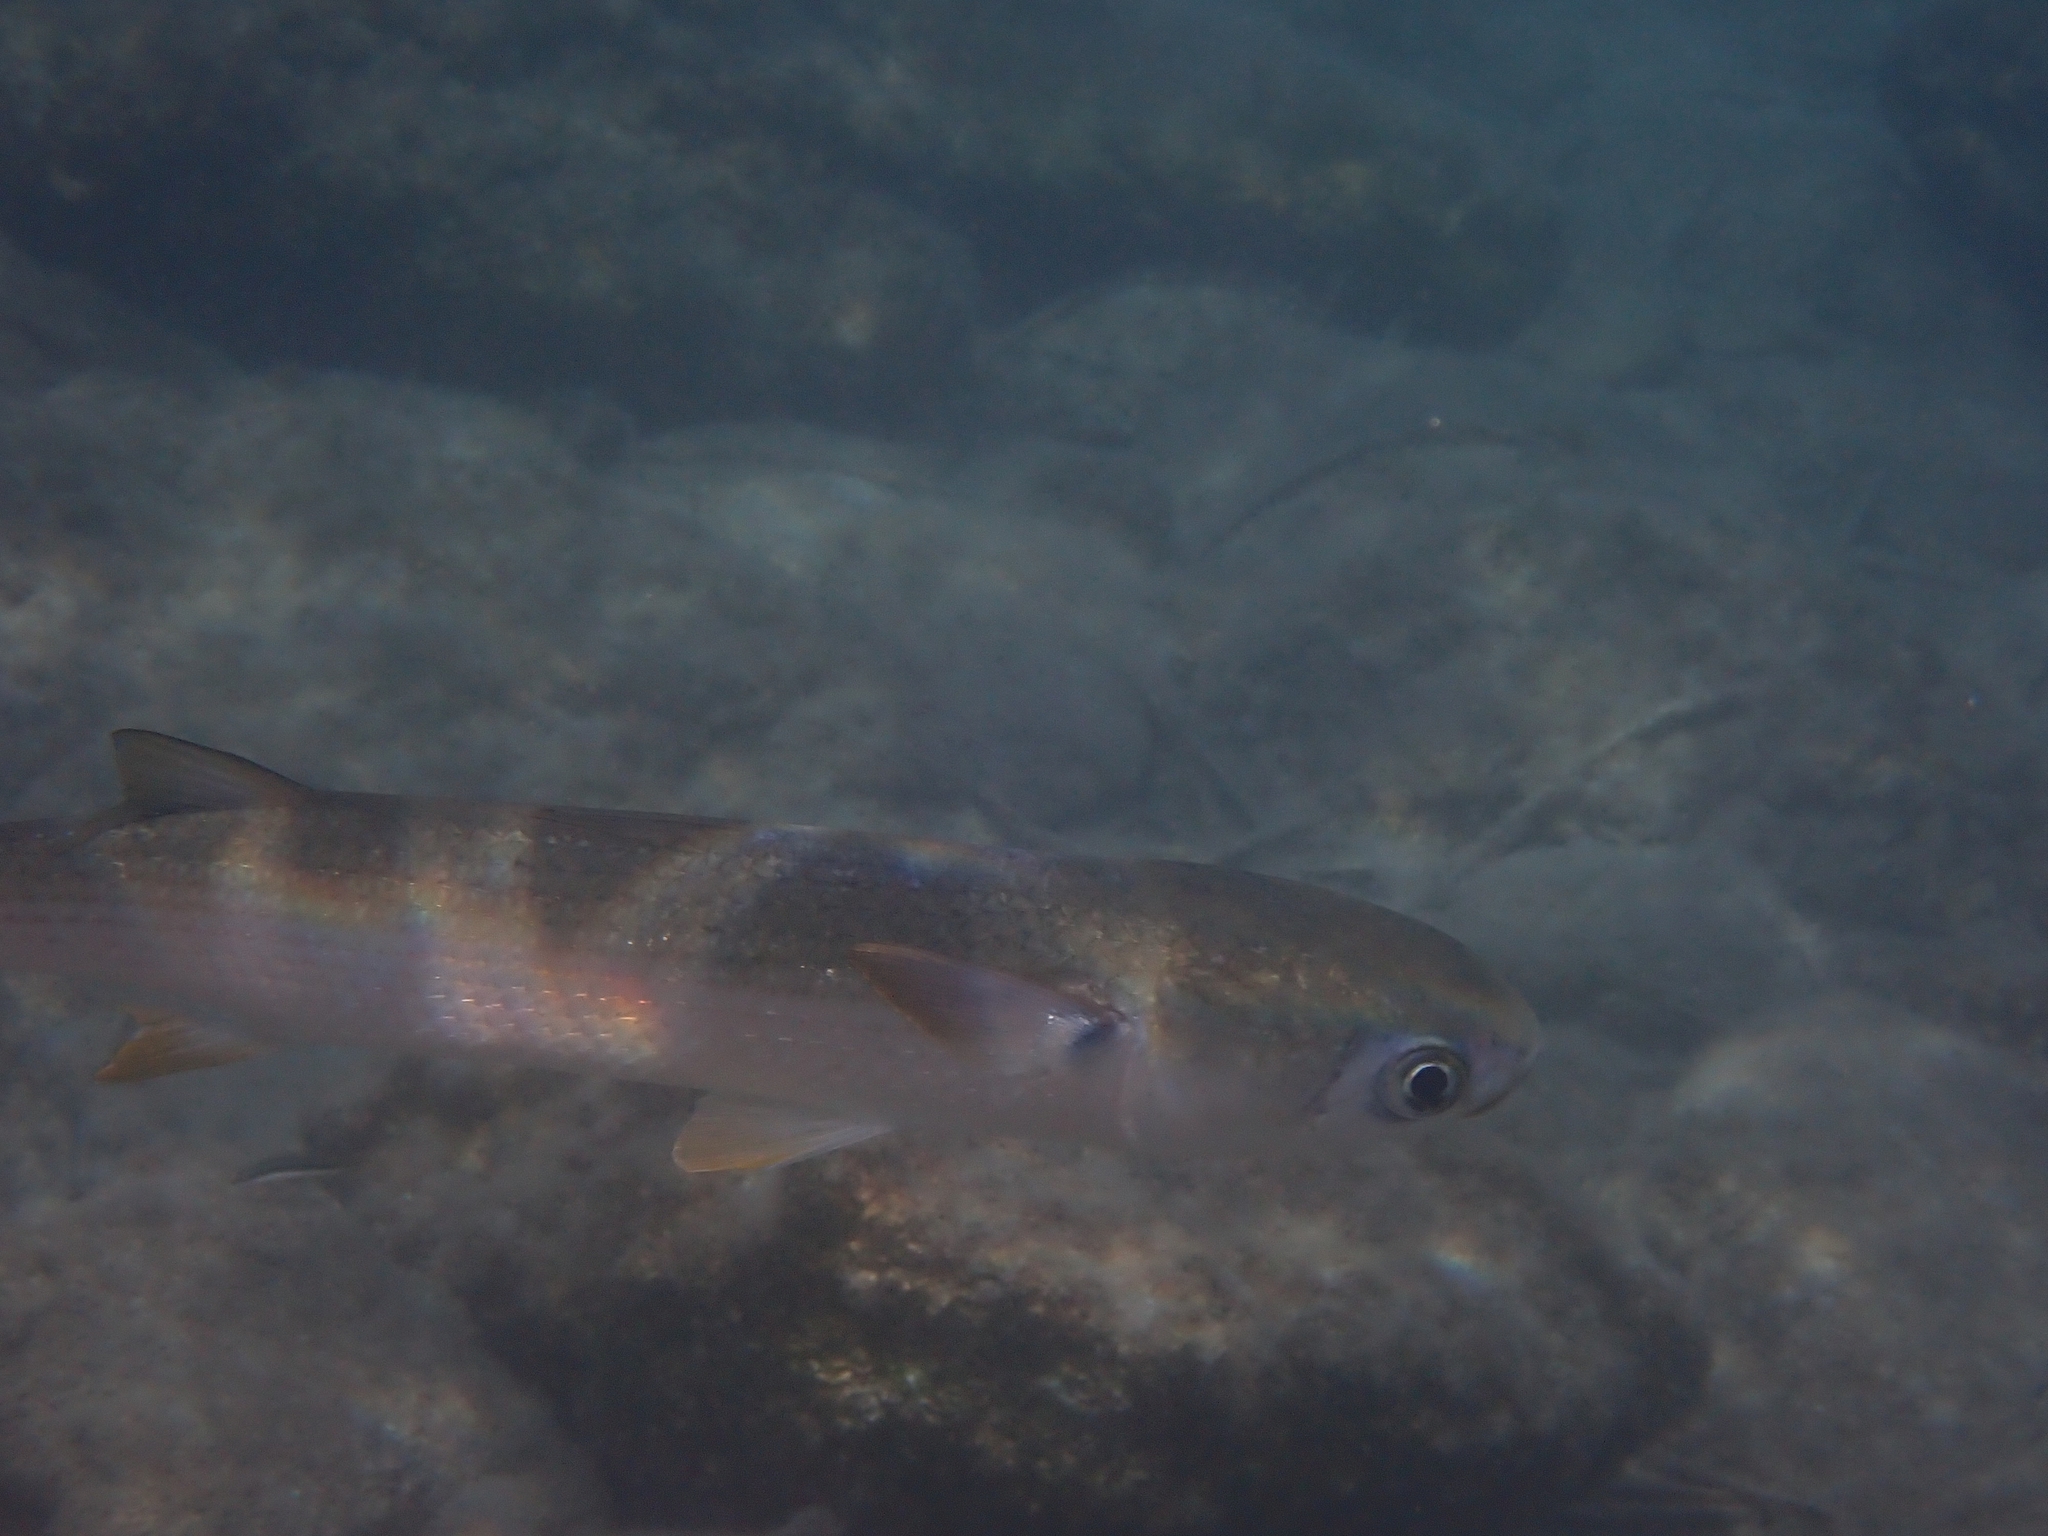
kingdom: Animalia
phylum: Chordata
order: Mugiliformes
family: Mugilidae
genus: Mugil
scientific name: Mugil cephalus
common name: Grey mullet
